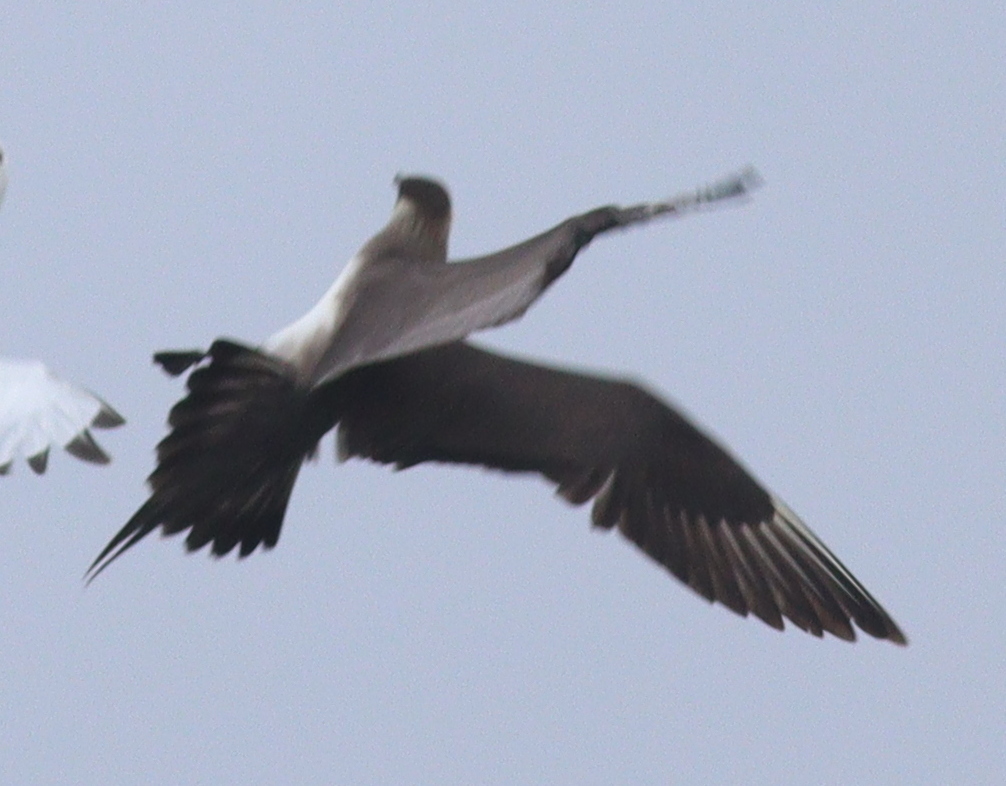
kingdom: Animalia
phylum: Chordata
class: Aves
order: Charadriiformes
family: Stercorariidae
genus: Stercorarius
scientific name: Stercorarius parasiticus
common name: Parasitic jaeger
